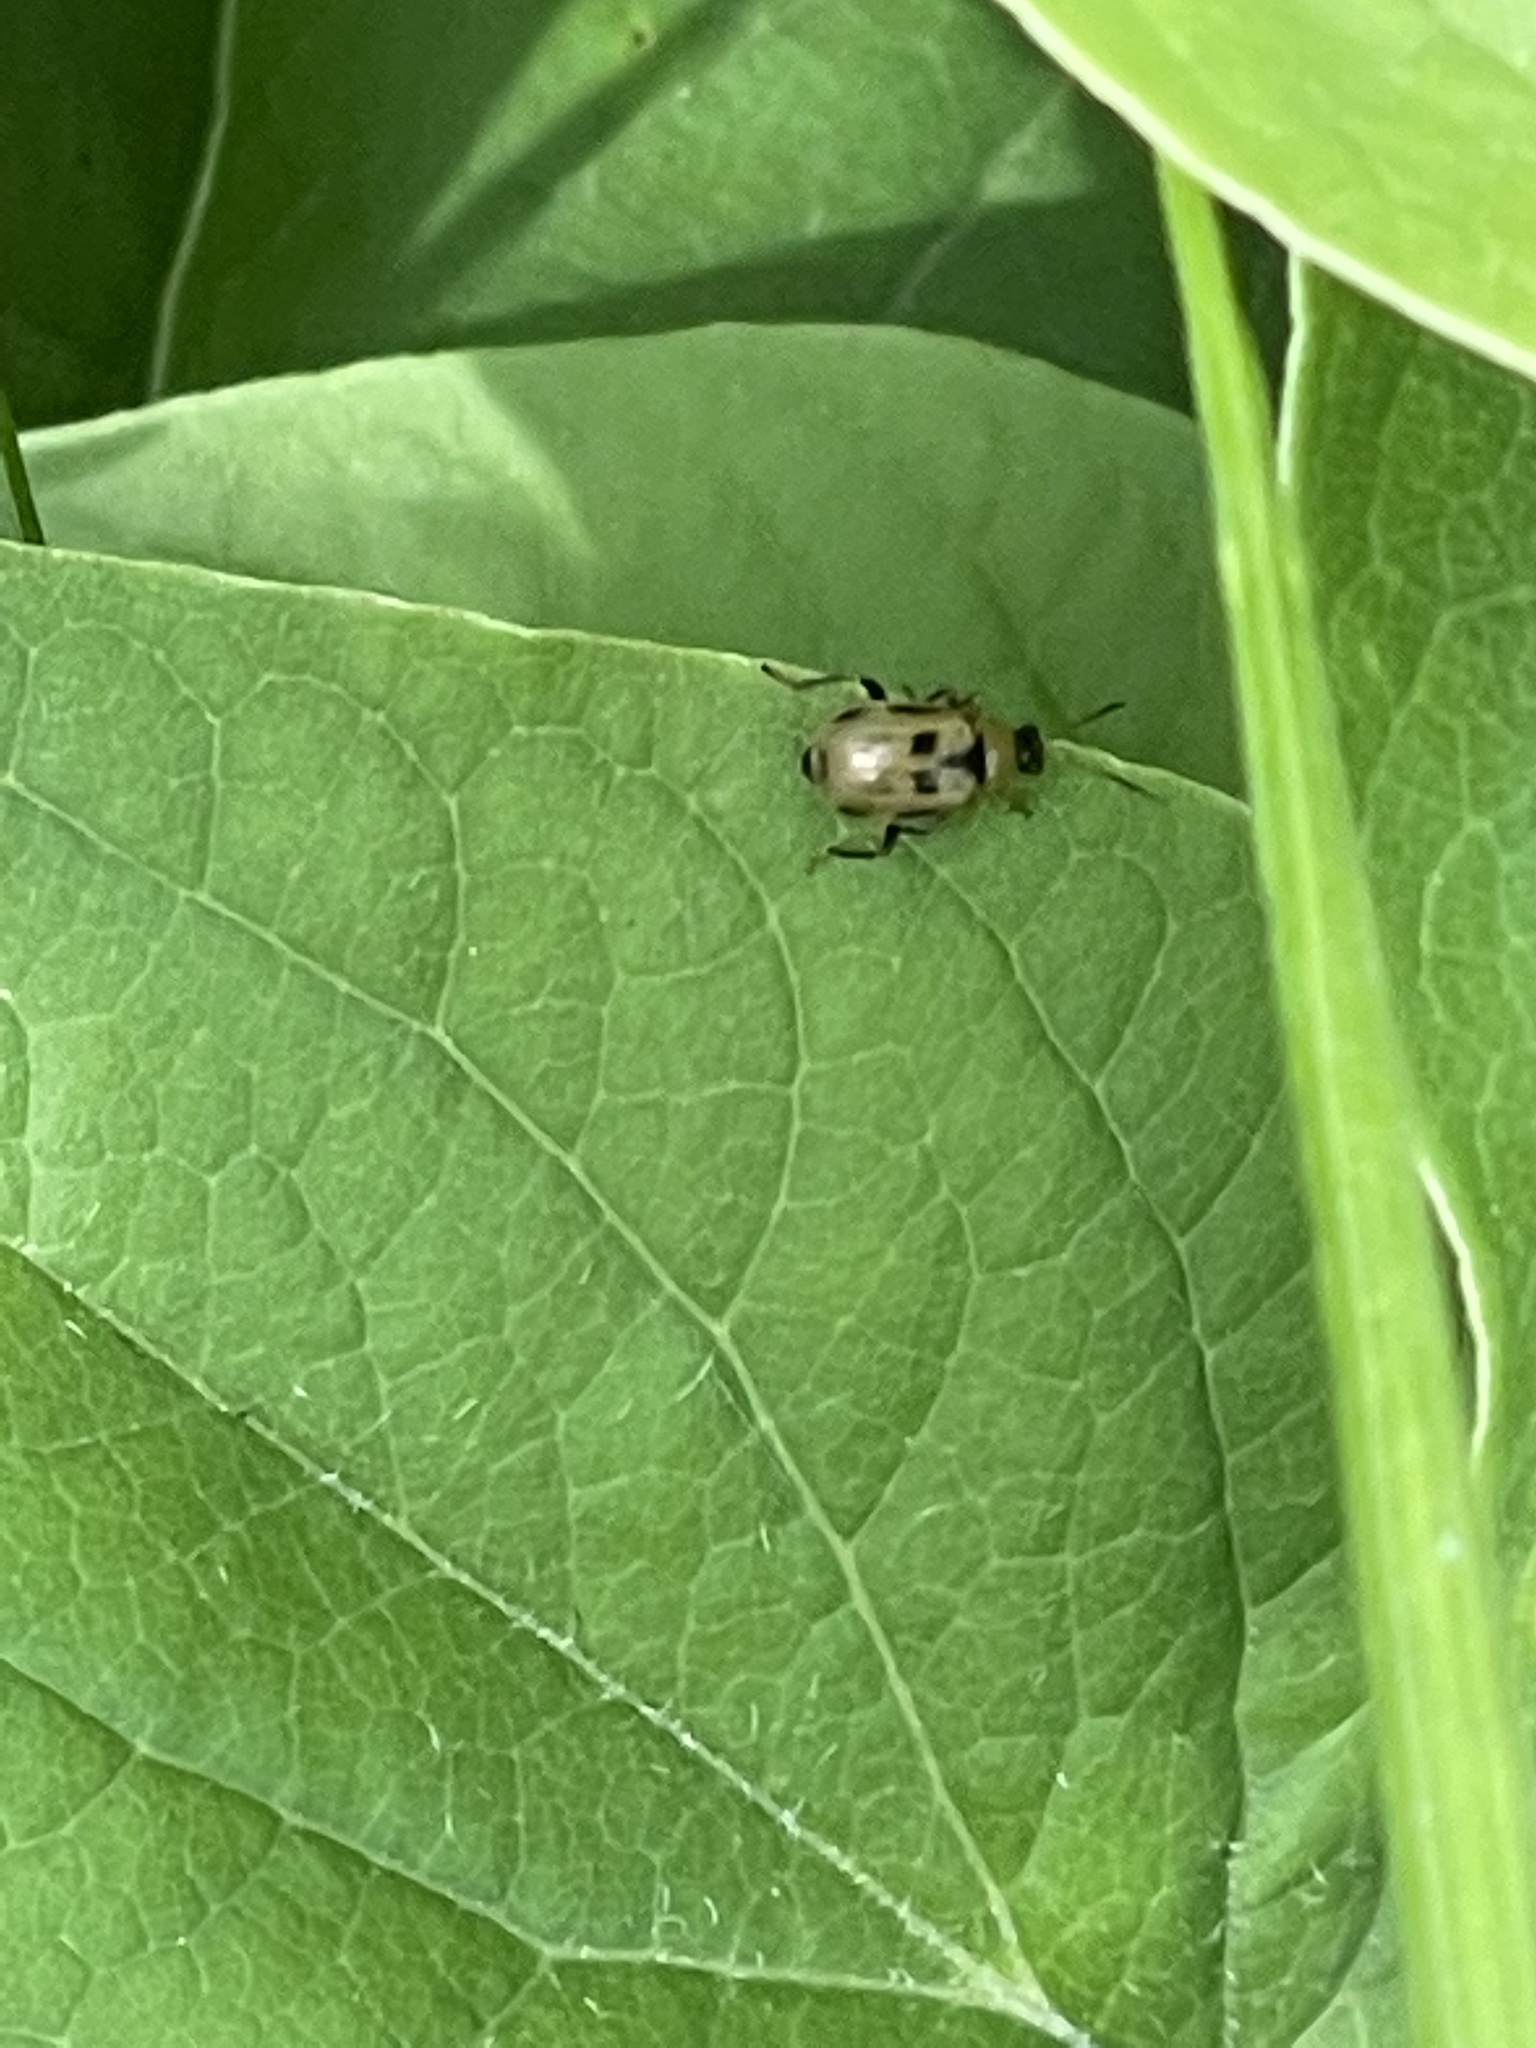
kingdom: Animalia
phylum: Arthropoda
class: Insecta
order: Coleoptera
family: Chrysomelidae
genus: Cerotoma
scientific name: Cerotoma trifurcata
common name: Bean leaf beetle
